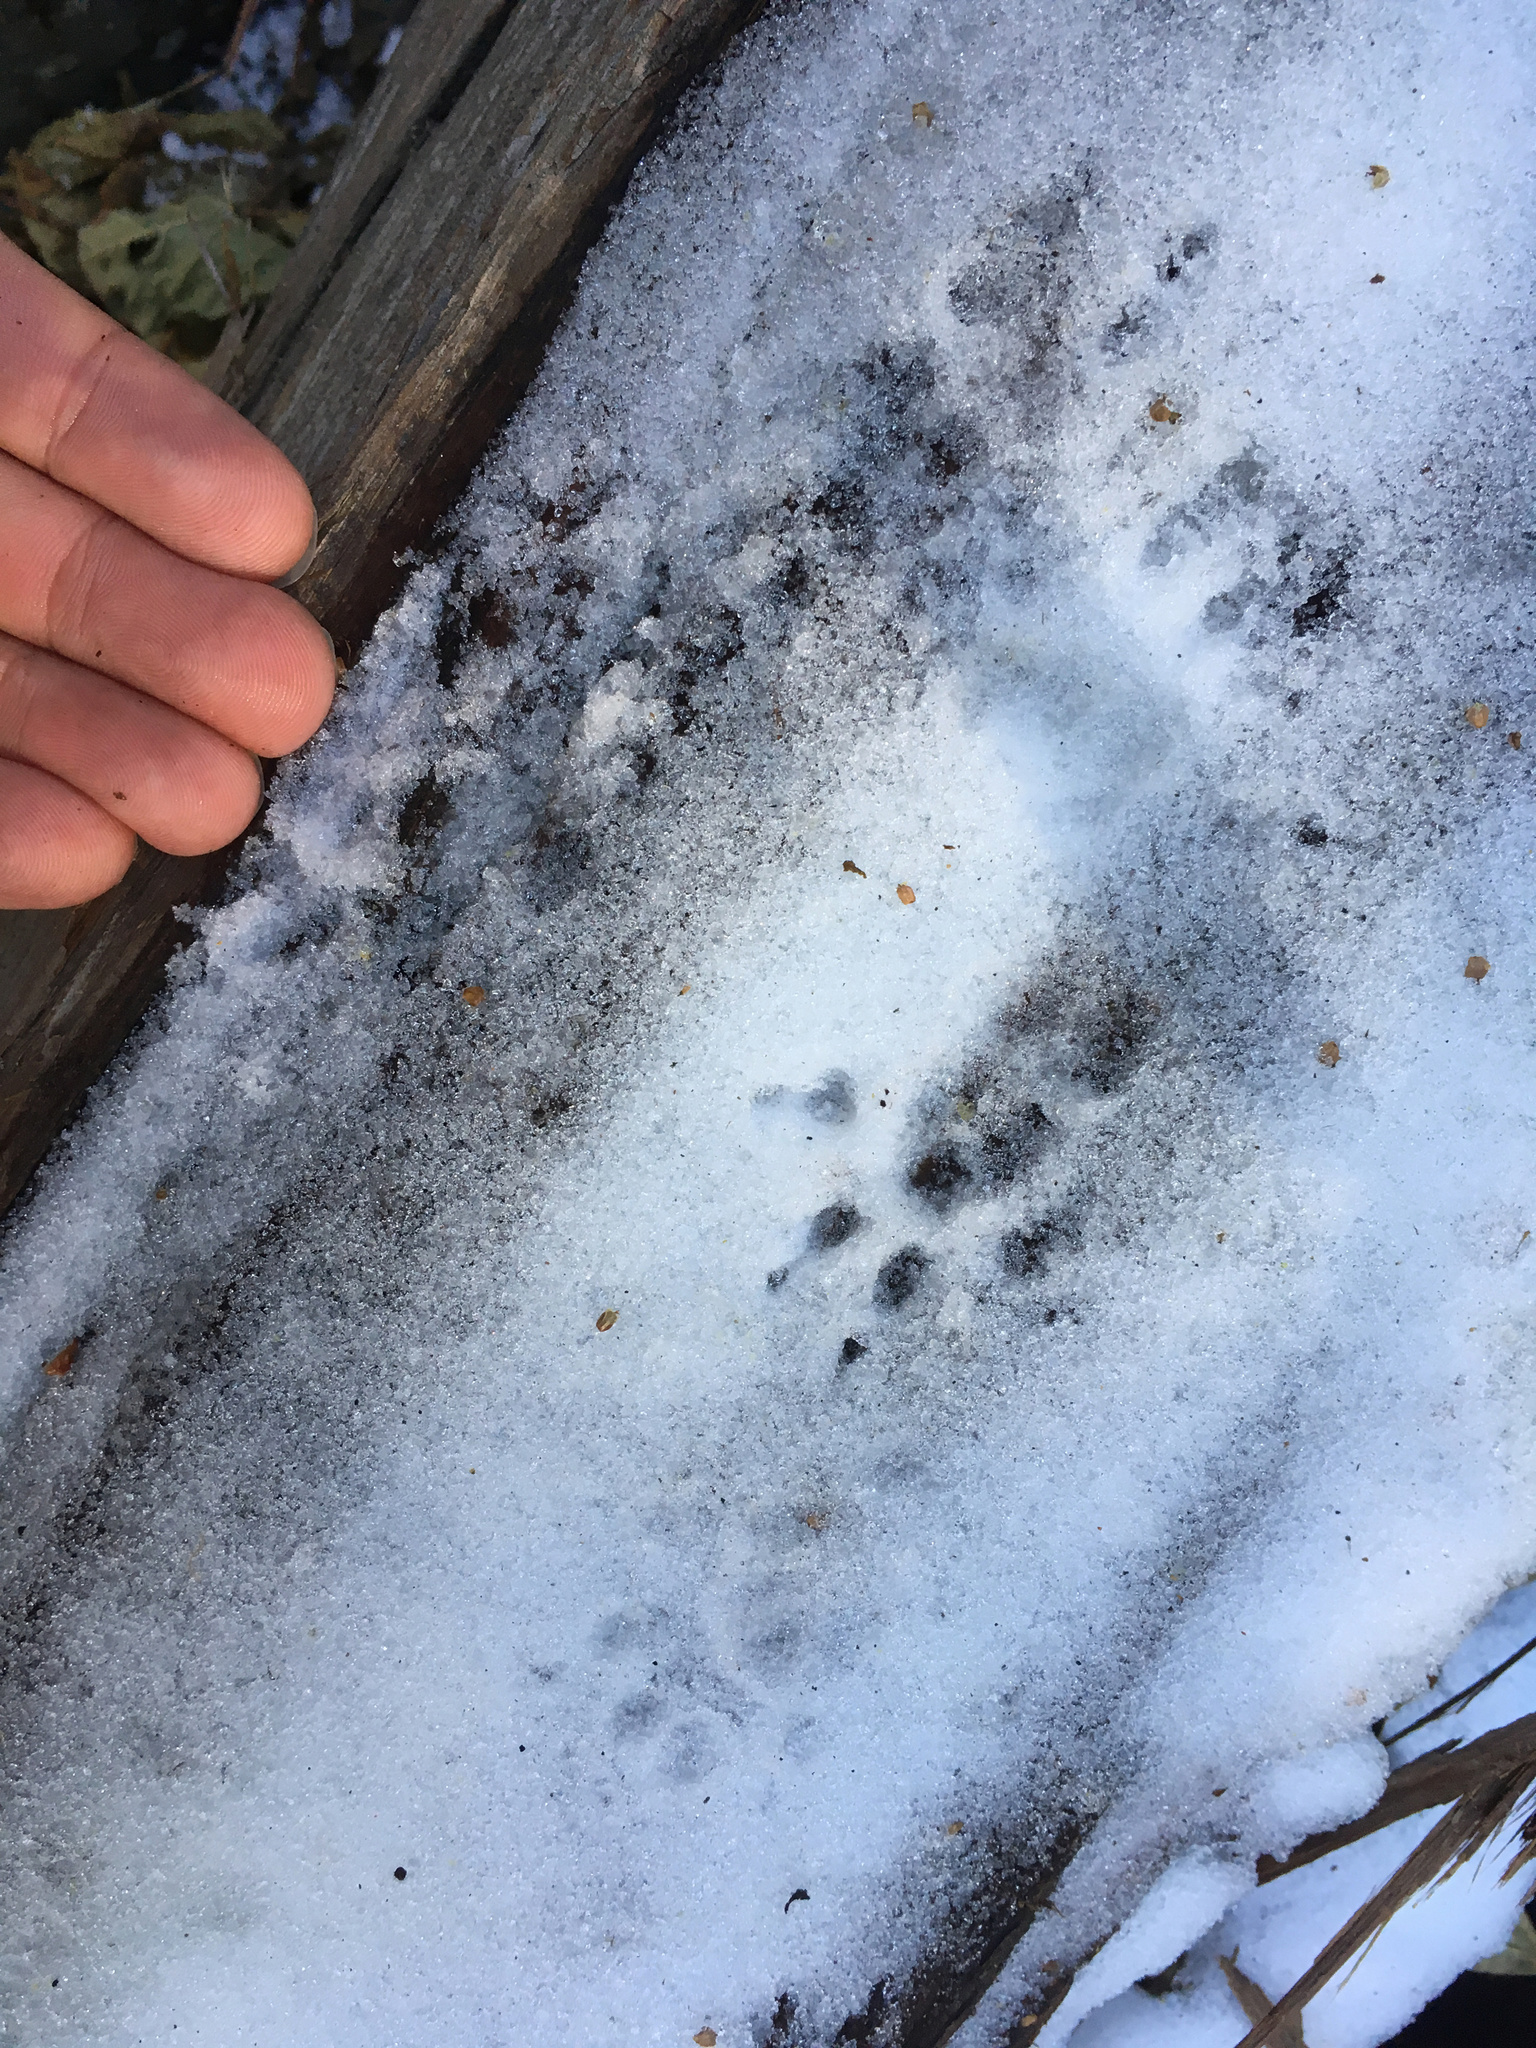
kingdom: Animalia
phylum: Chordata
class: Mammalia
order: Rodentia
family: Sciuridae
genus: Sciurus
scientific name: Sciurus griseus
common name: Western gray squirrel
